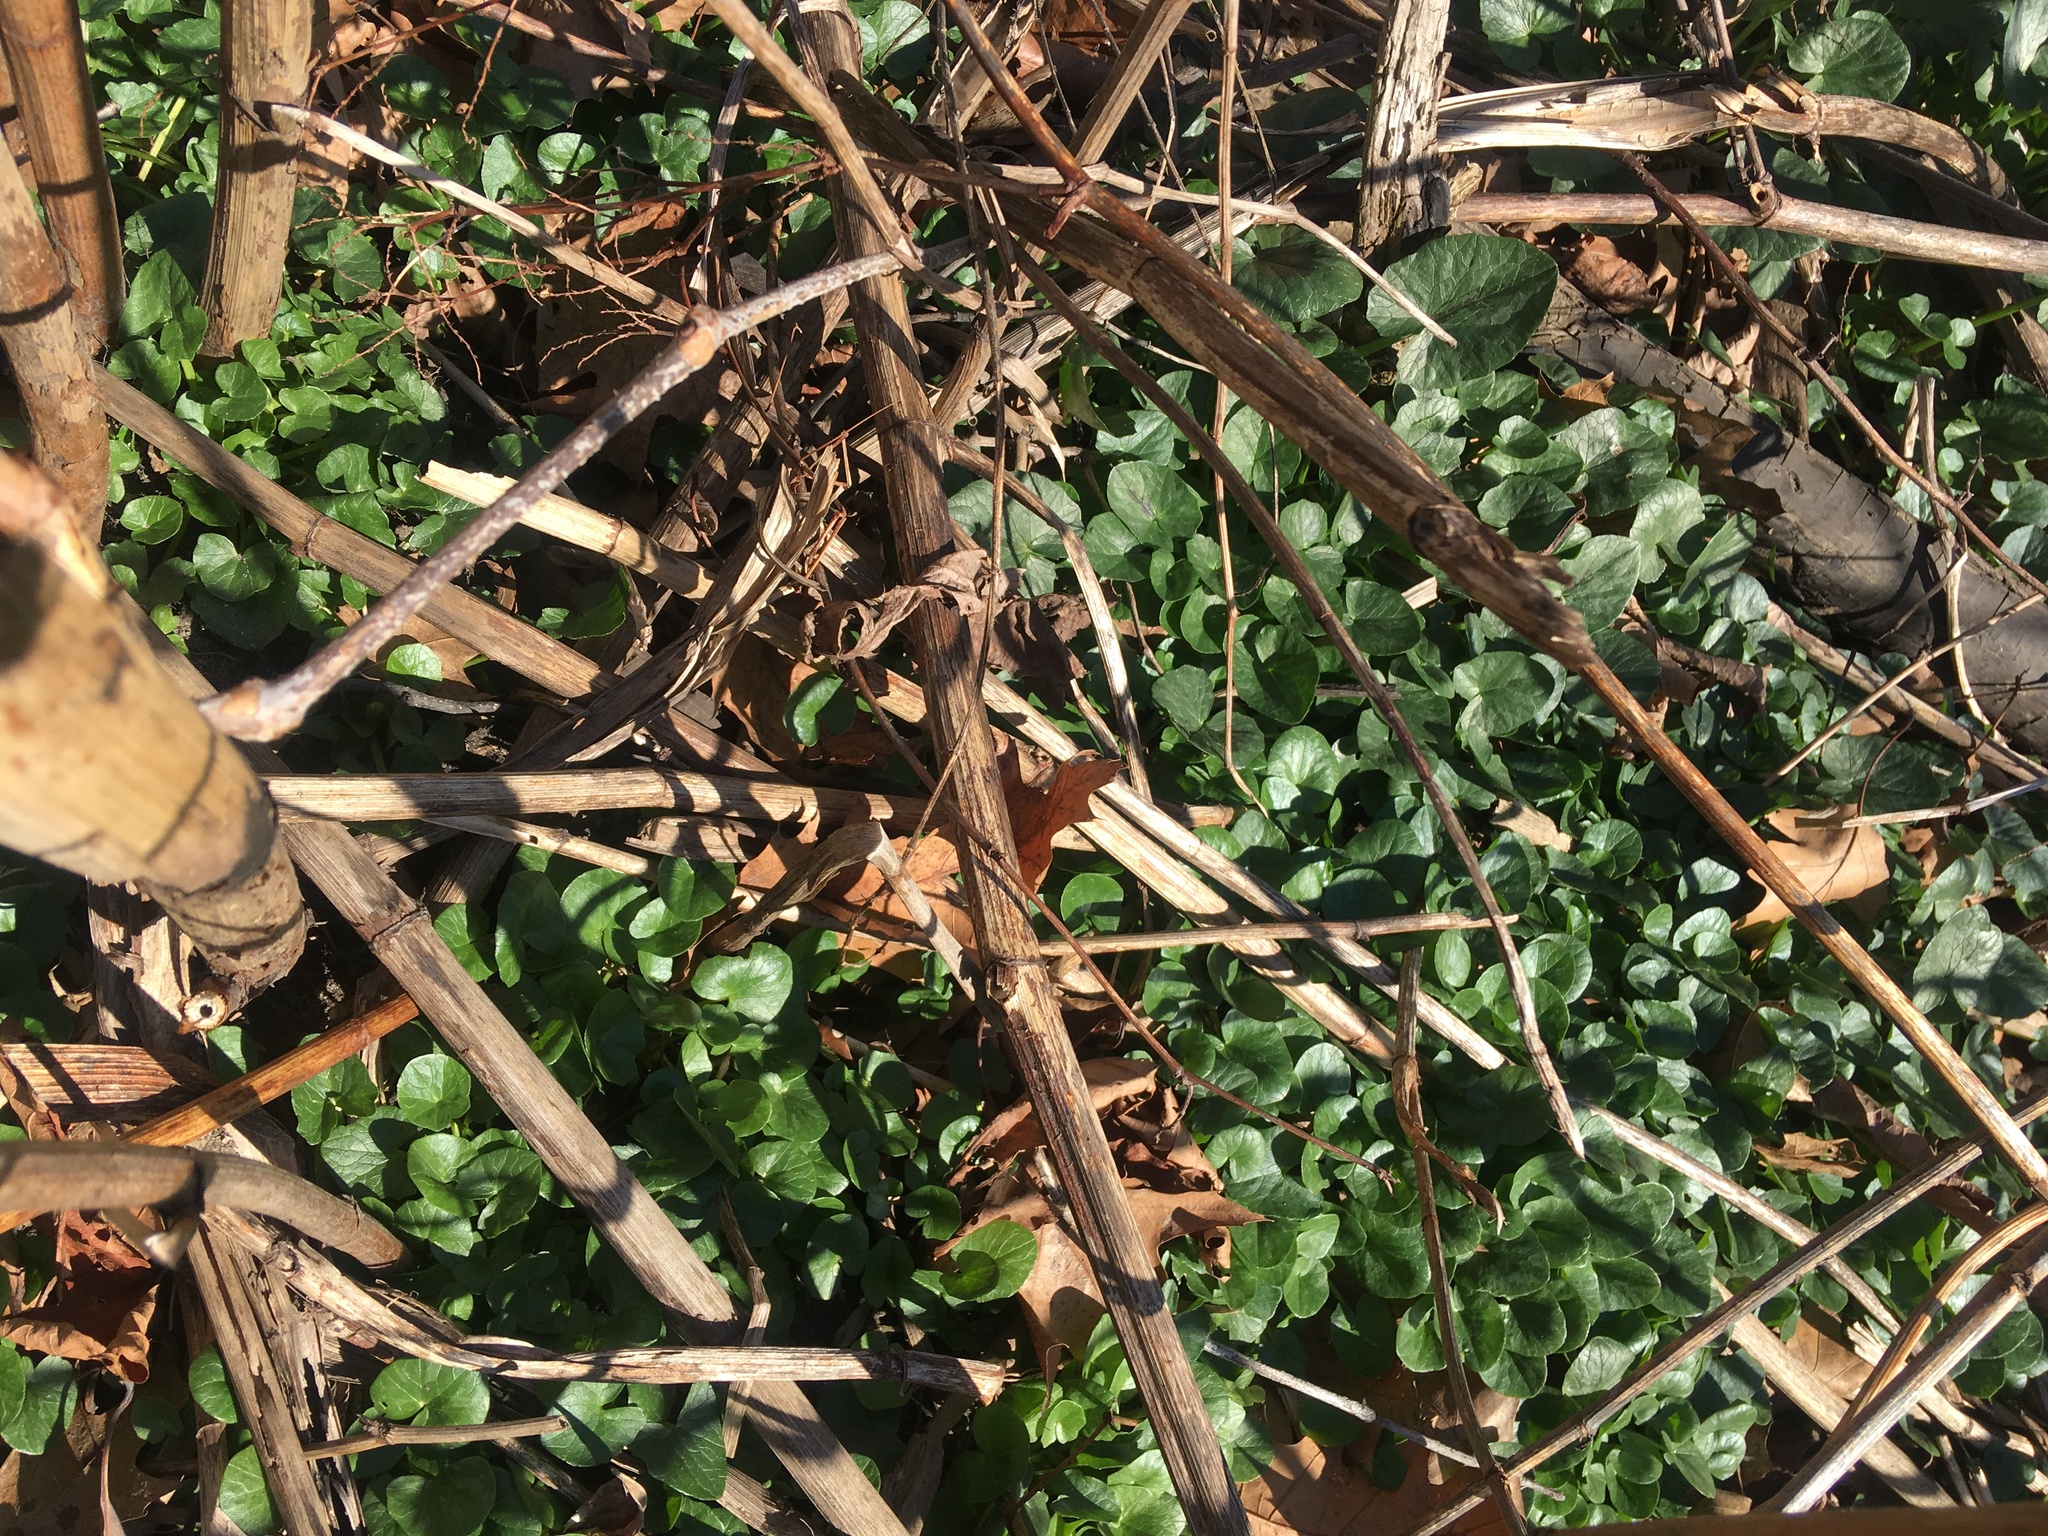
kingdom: Plantae
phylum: Tracheophyta
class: Magnoliopsida
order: Ranunculales
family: Ranunculaceae
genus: Ficaria
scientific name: Ficaria verna
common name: Lesser celandine
